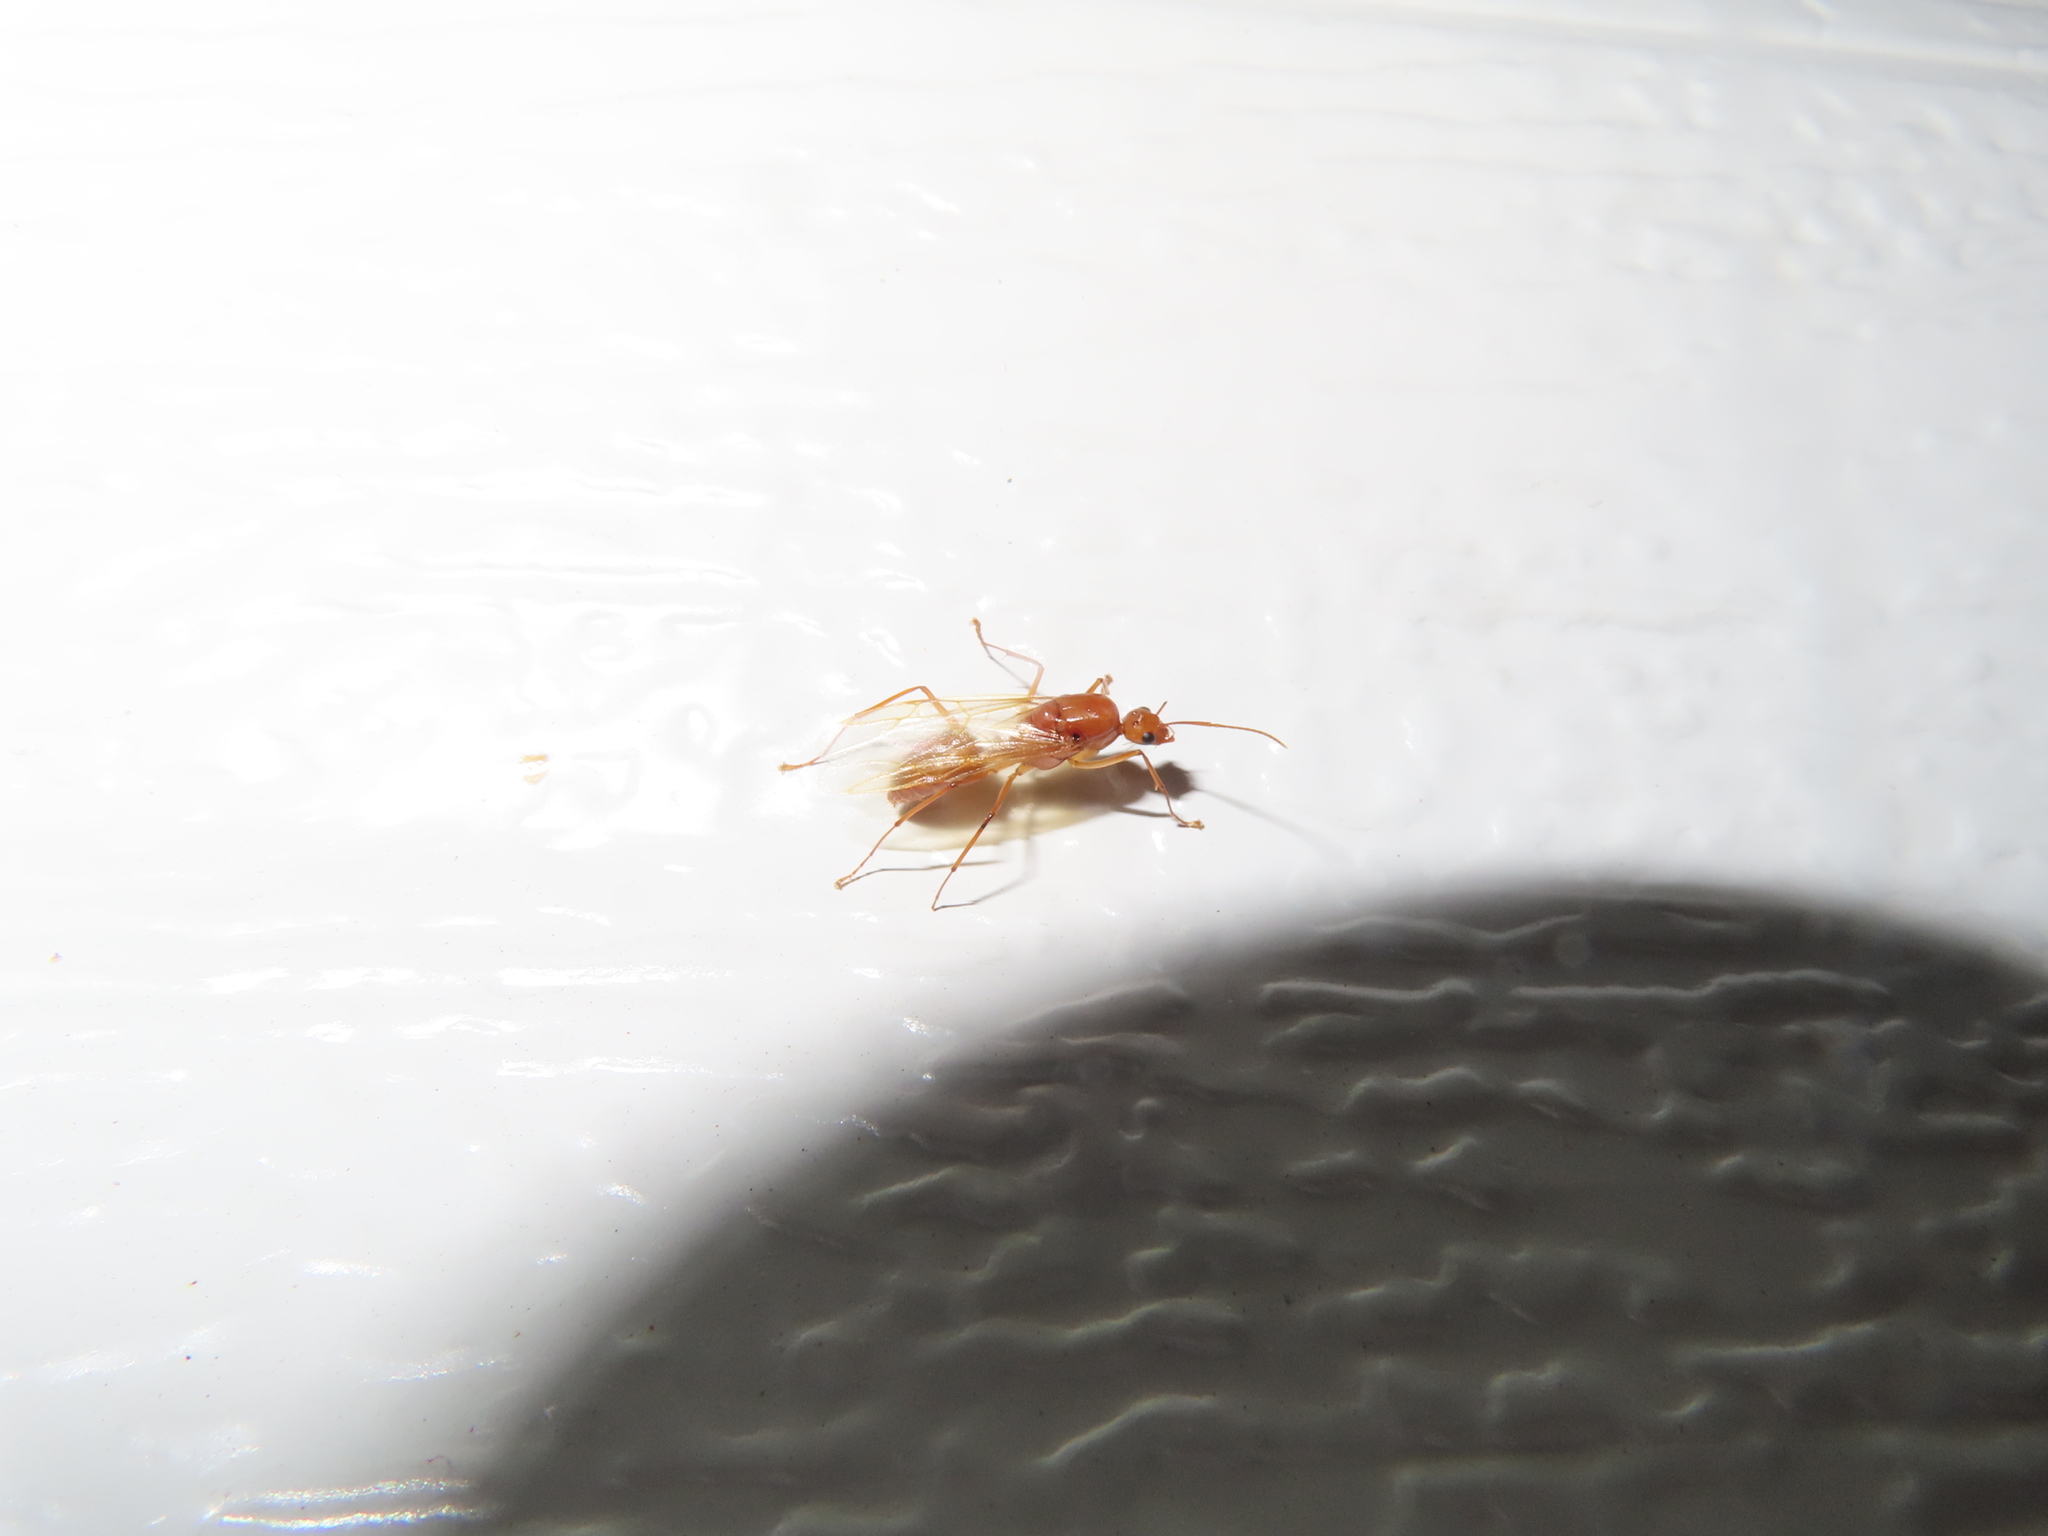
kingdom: Animalia
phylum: Arthropoda
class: Insecta
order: Hymenoptera
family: Formicidae
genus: Camponotus
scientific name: Camponotus castaneus
